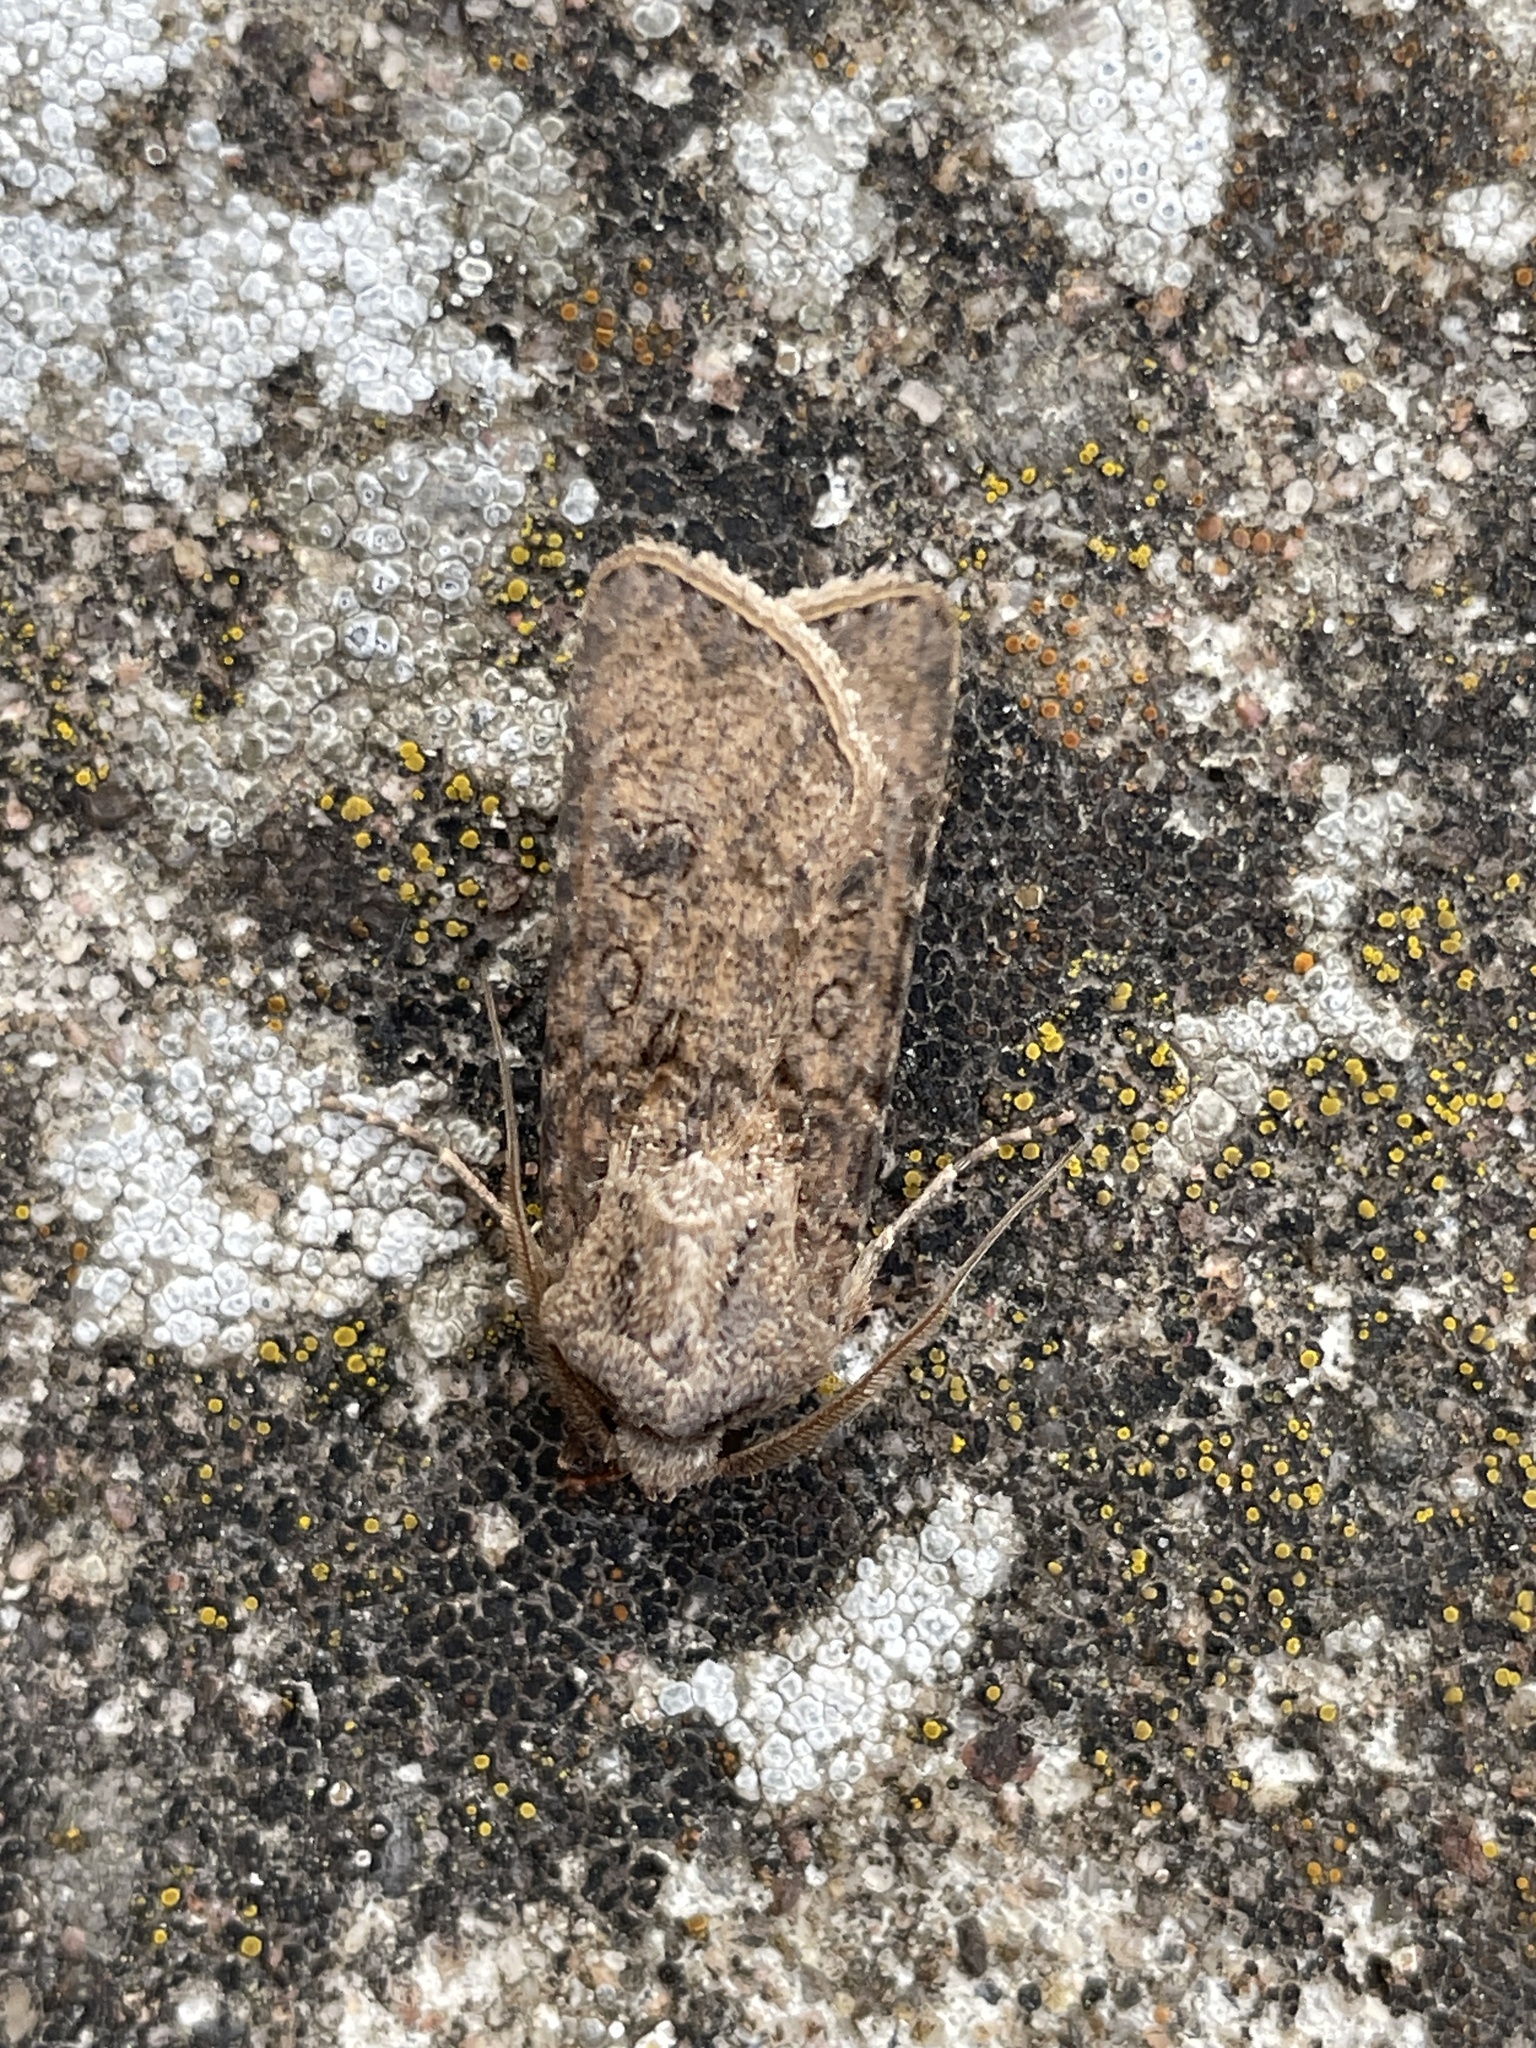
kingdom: Animalia
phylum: Arthropoda
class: Insecta
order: Lepidoptera
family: Noctuidae
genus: Agrotis
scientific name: Agrotis segetum
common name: Turnip moth
